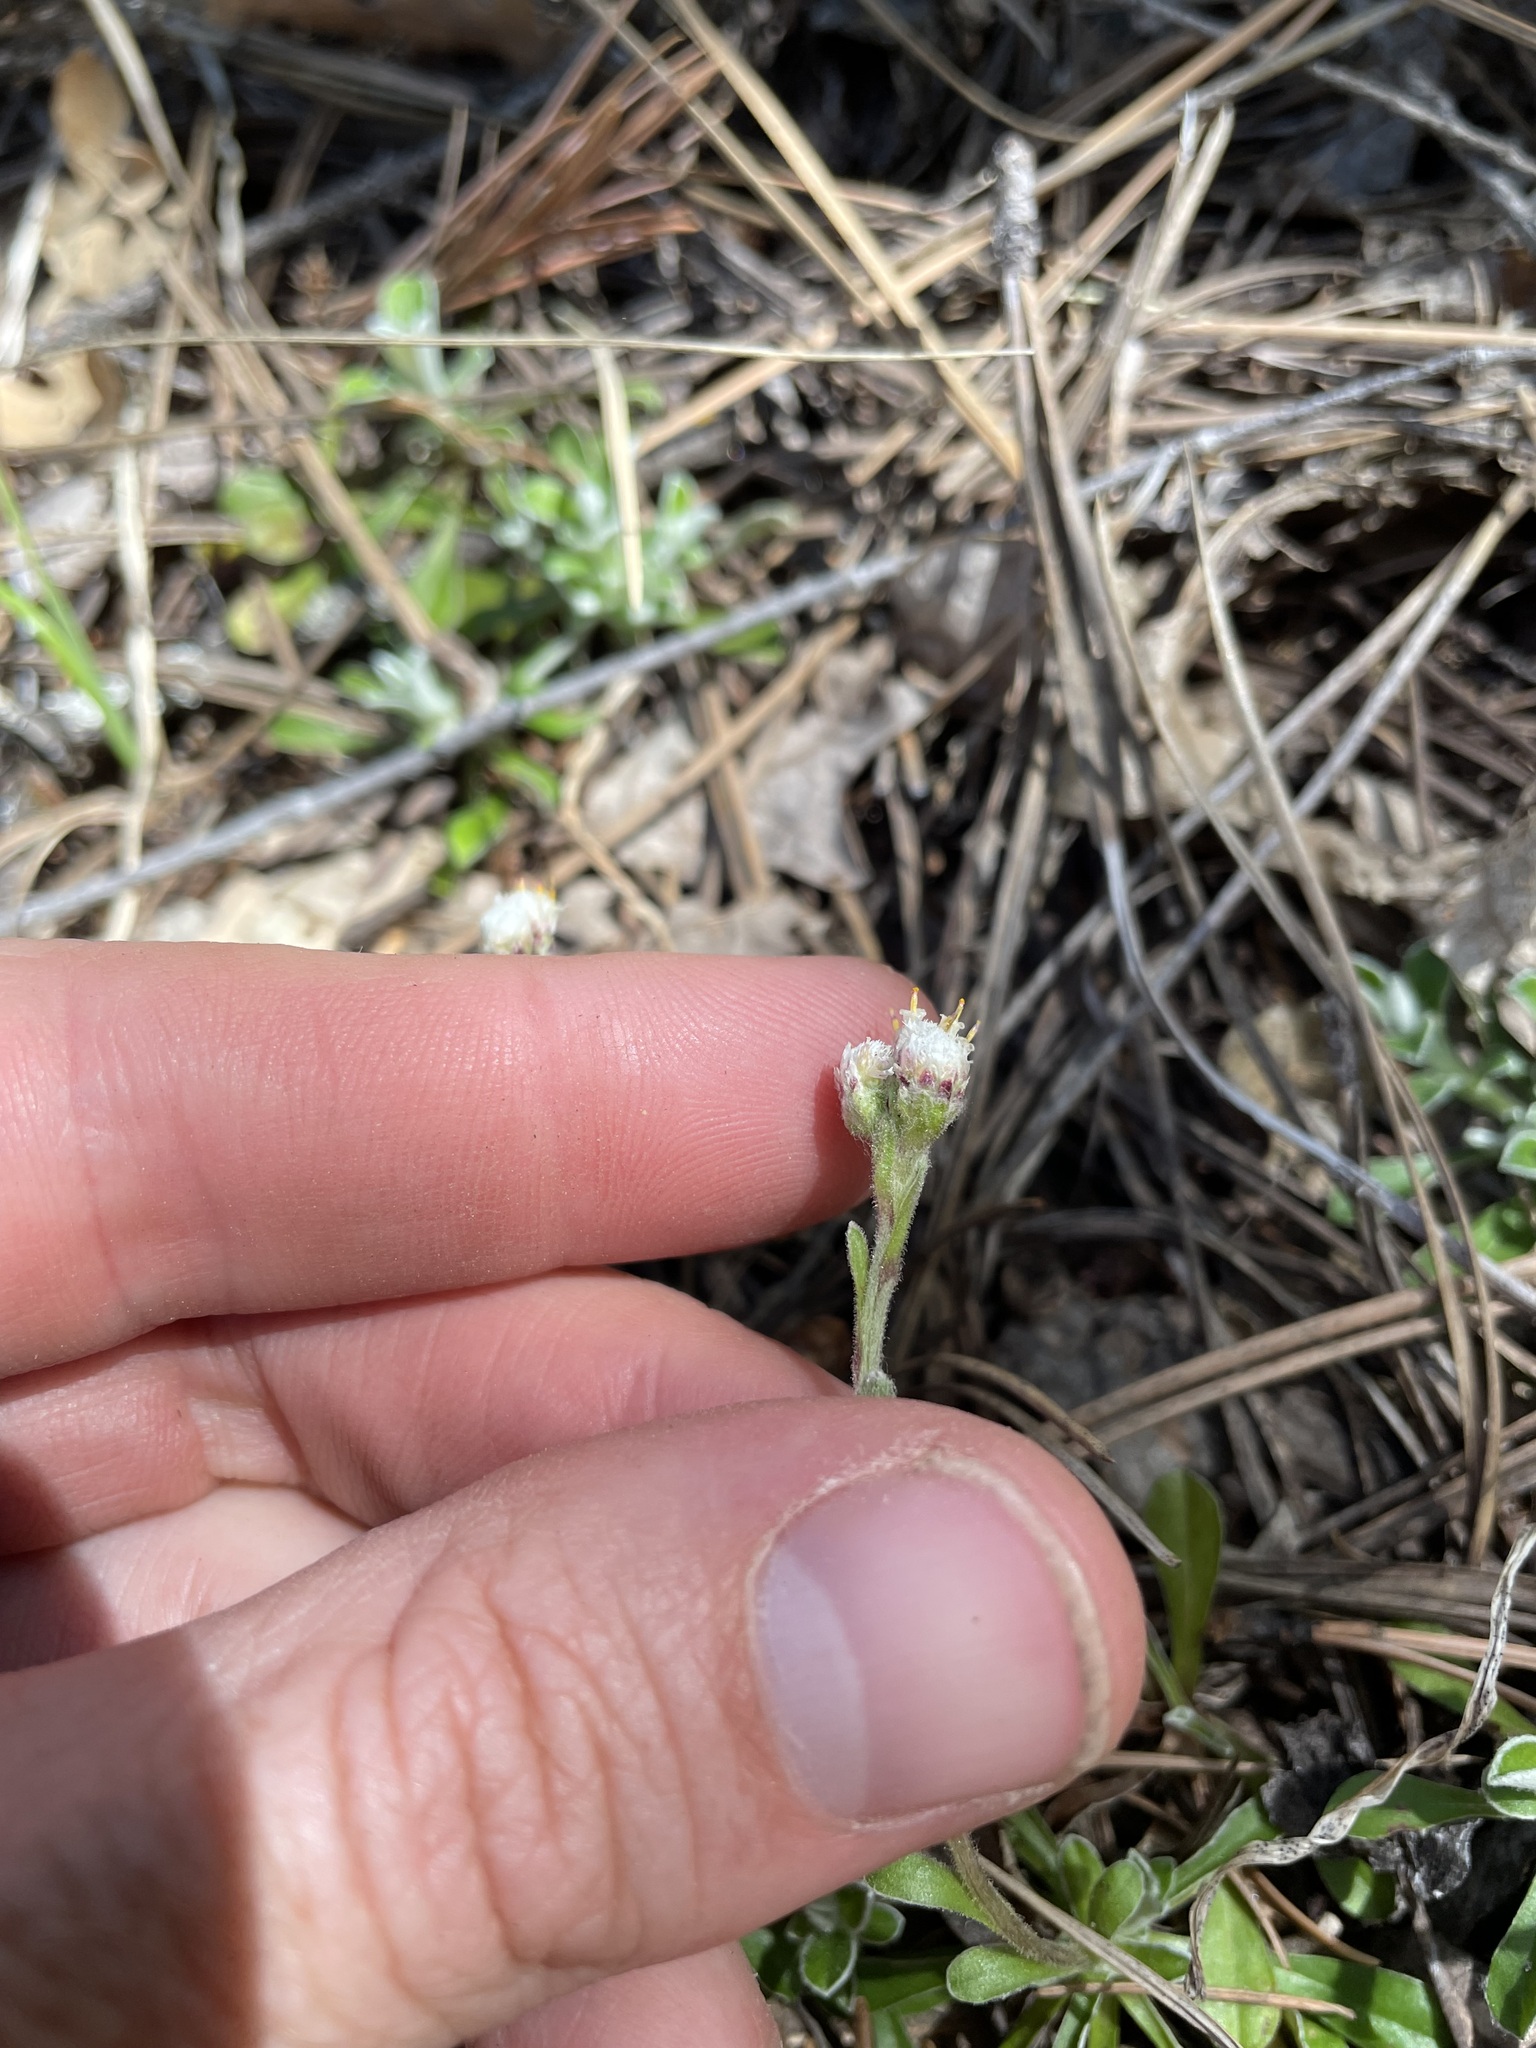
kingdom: Plantae
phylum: Tracheophyta
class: Magnoliopsida
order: Asterales
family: Asteraceae
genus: Antennaria
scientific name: Antennaria marginata
